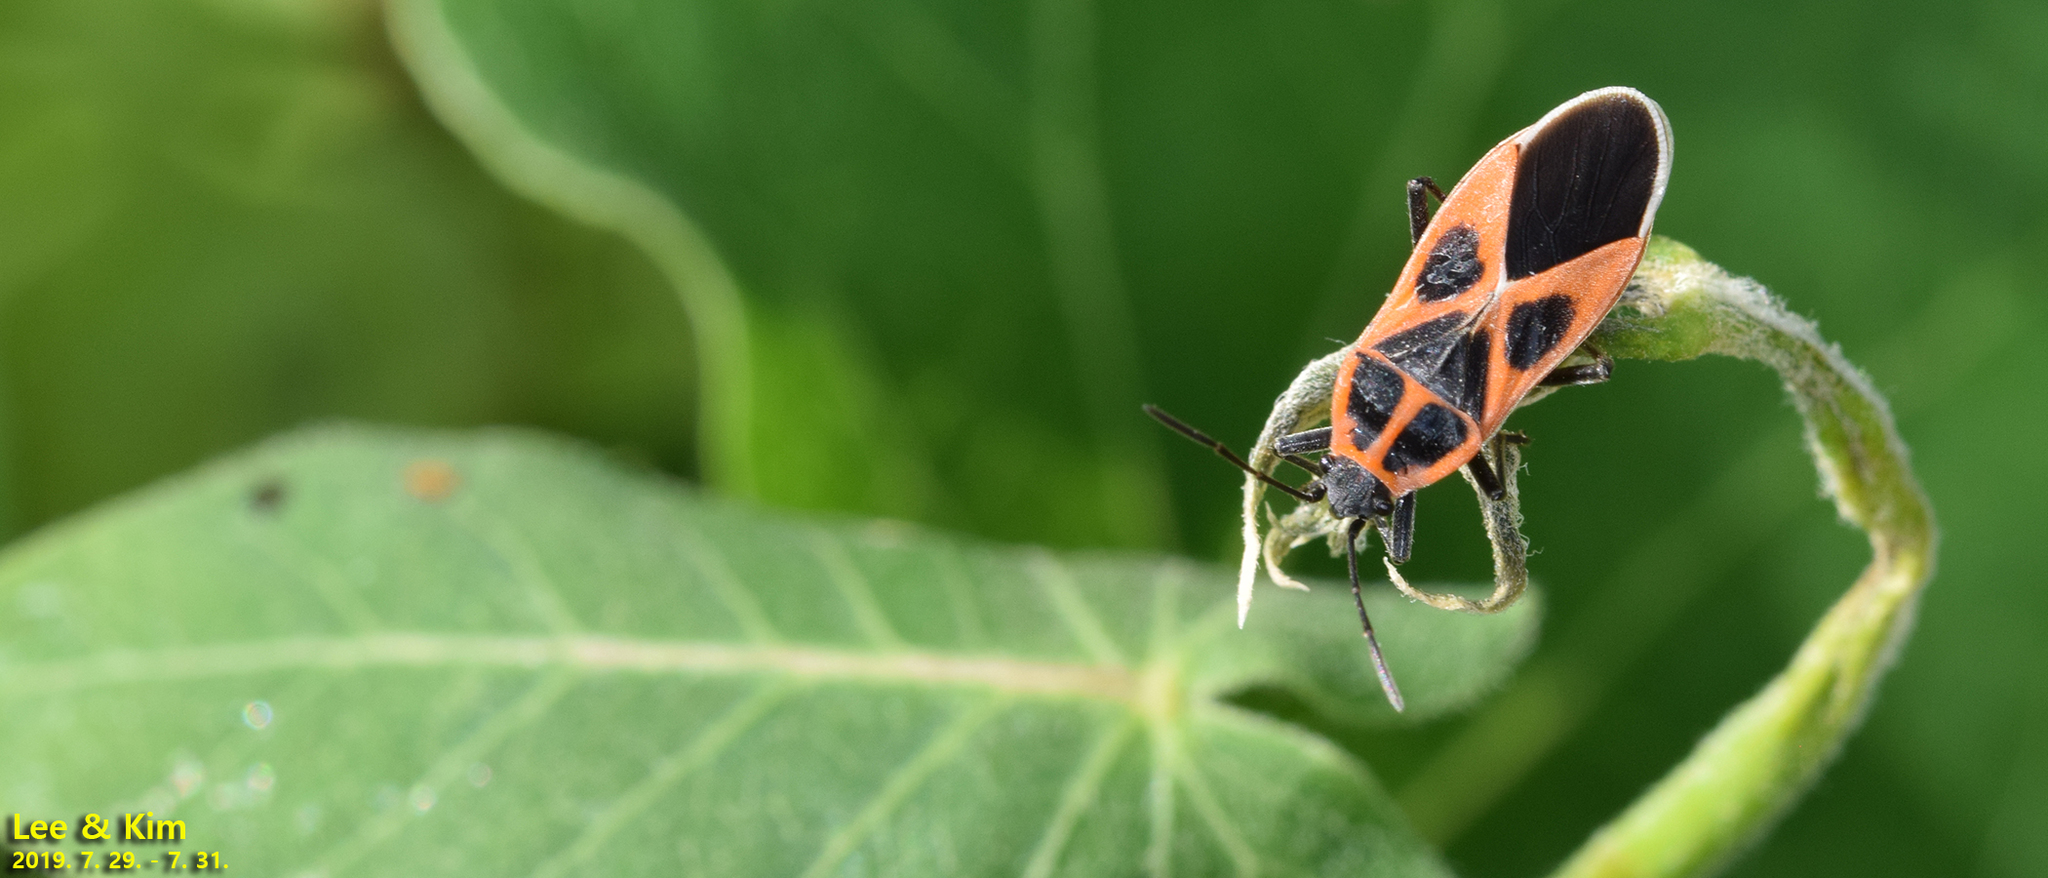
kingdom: Animalia
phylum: Arthropoda
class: Insecta
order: Hemiptera
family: Lygaeidae
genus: Tropidothorax
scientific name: Tropidothorax cruciger
